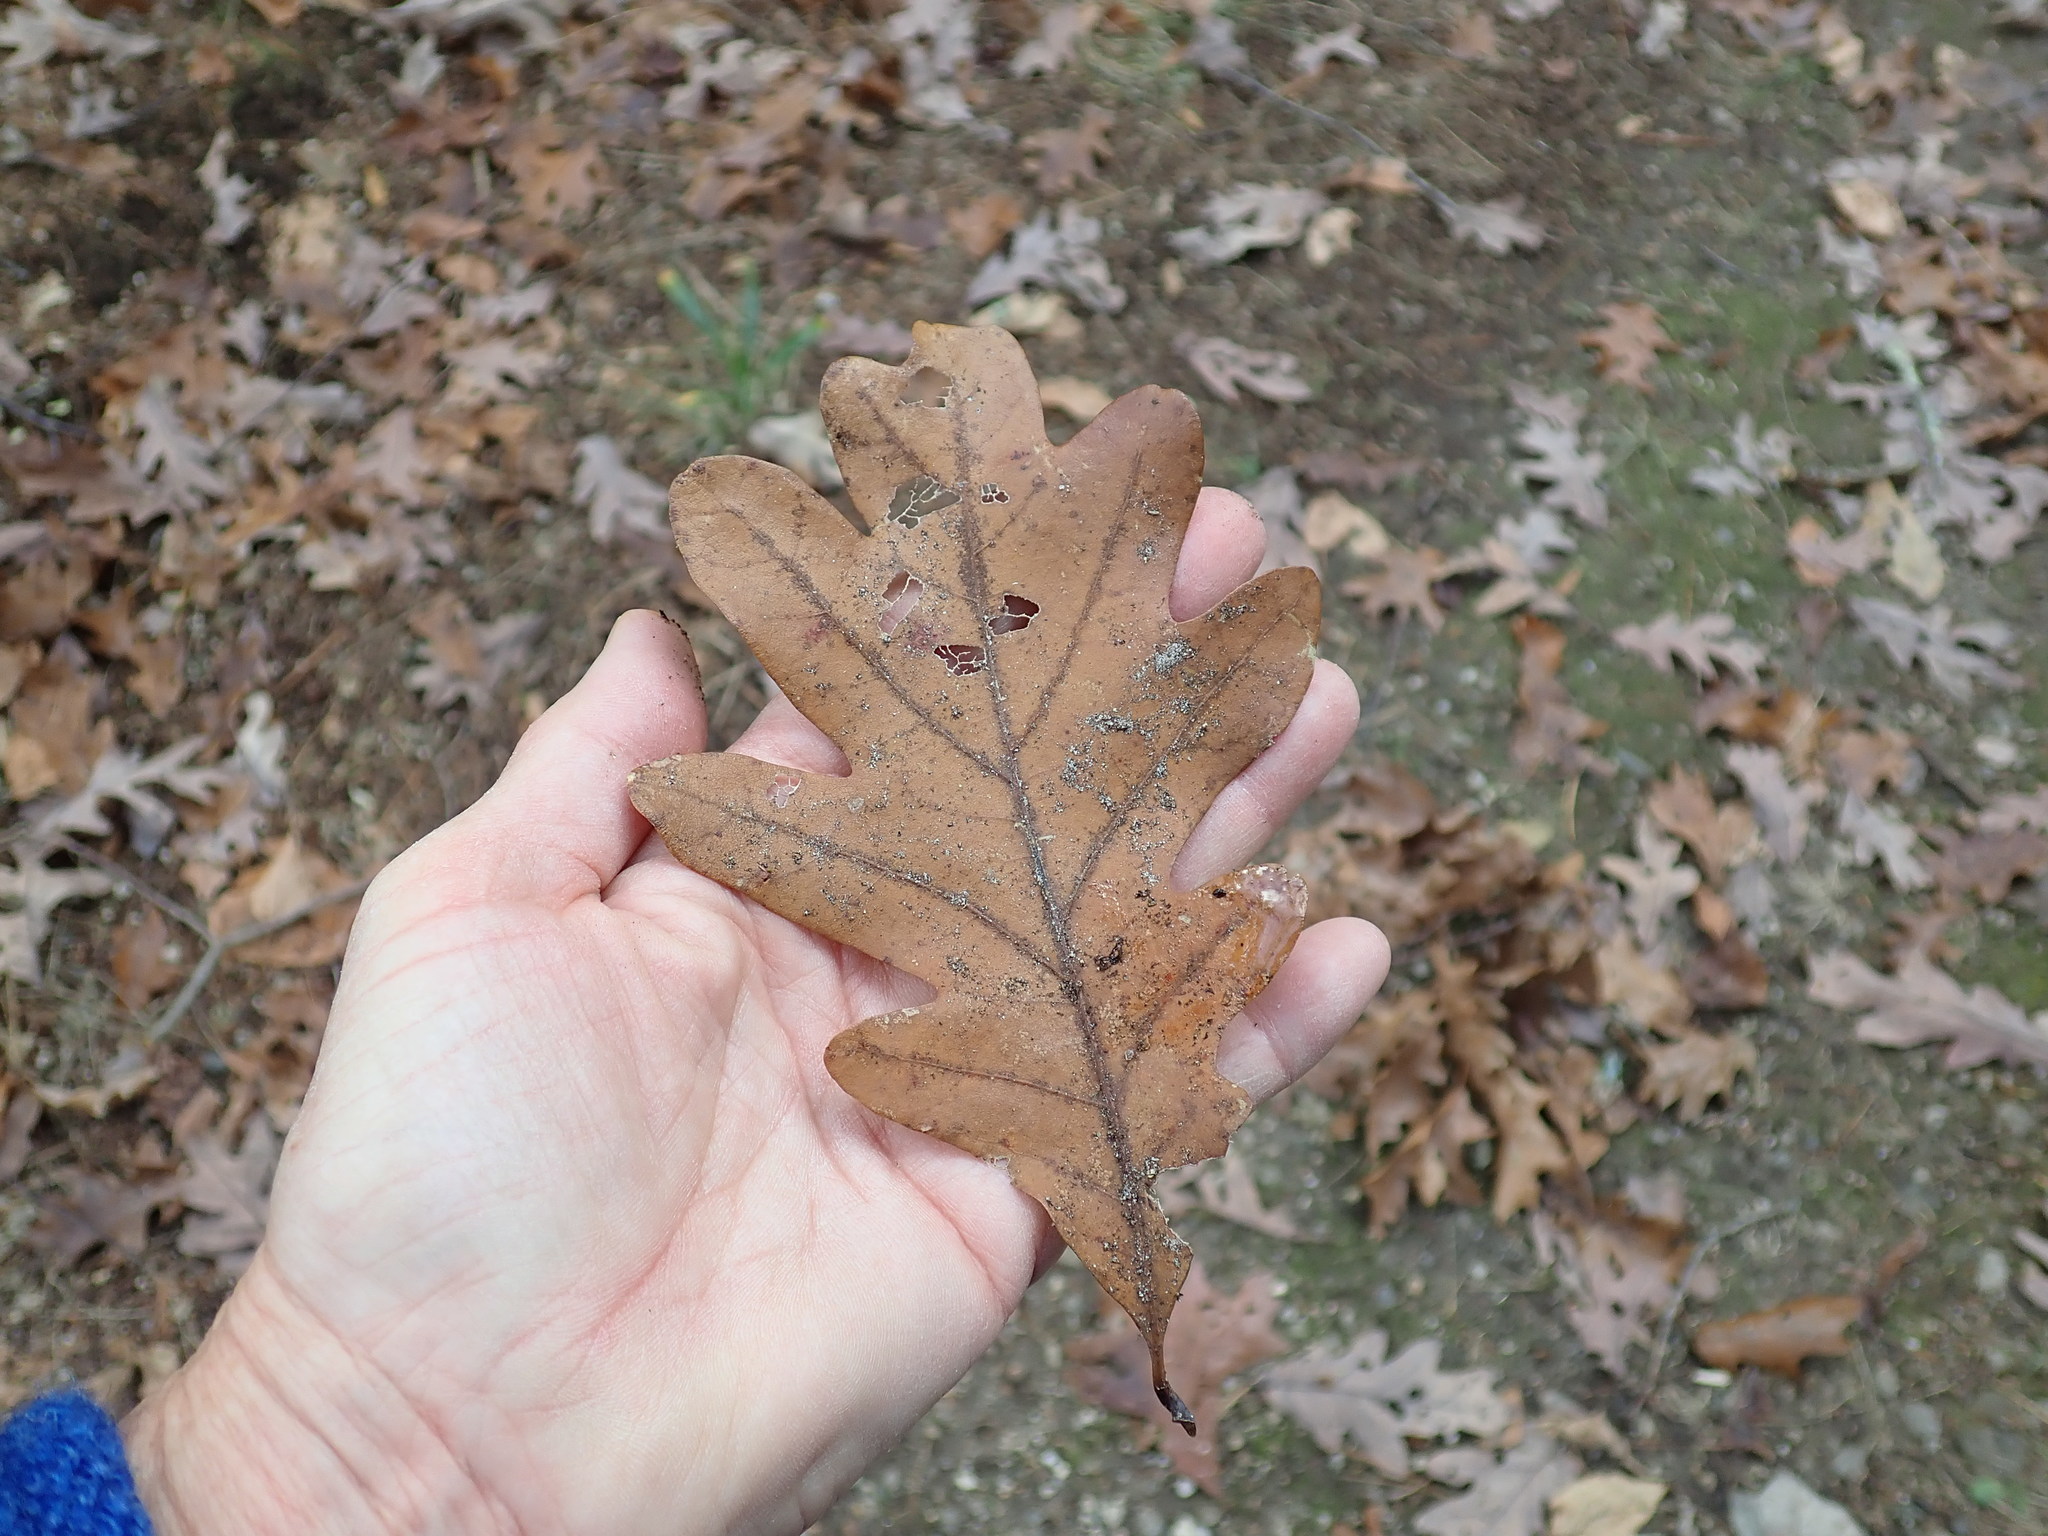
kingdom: Plantae
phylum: Tracheophyta
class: Magnoliopsida
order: Fagales
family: Fagaceae
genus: Quercus
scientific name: Quercus alba
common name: White oak
